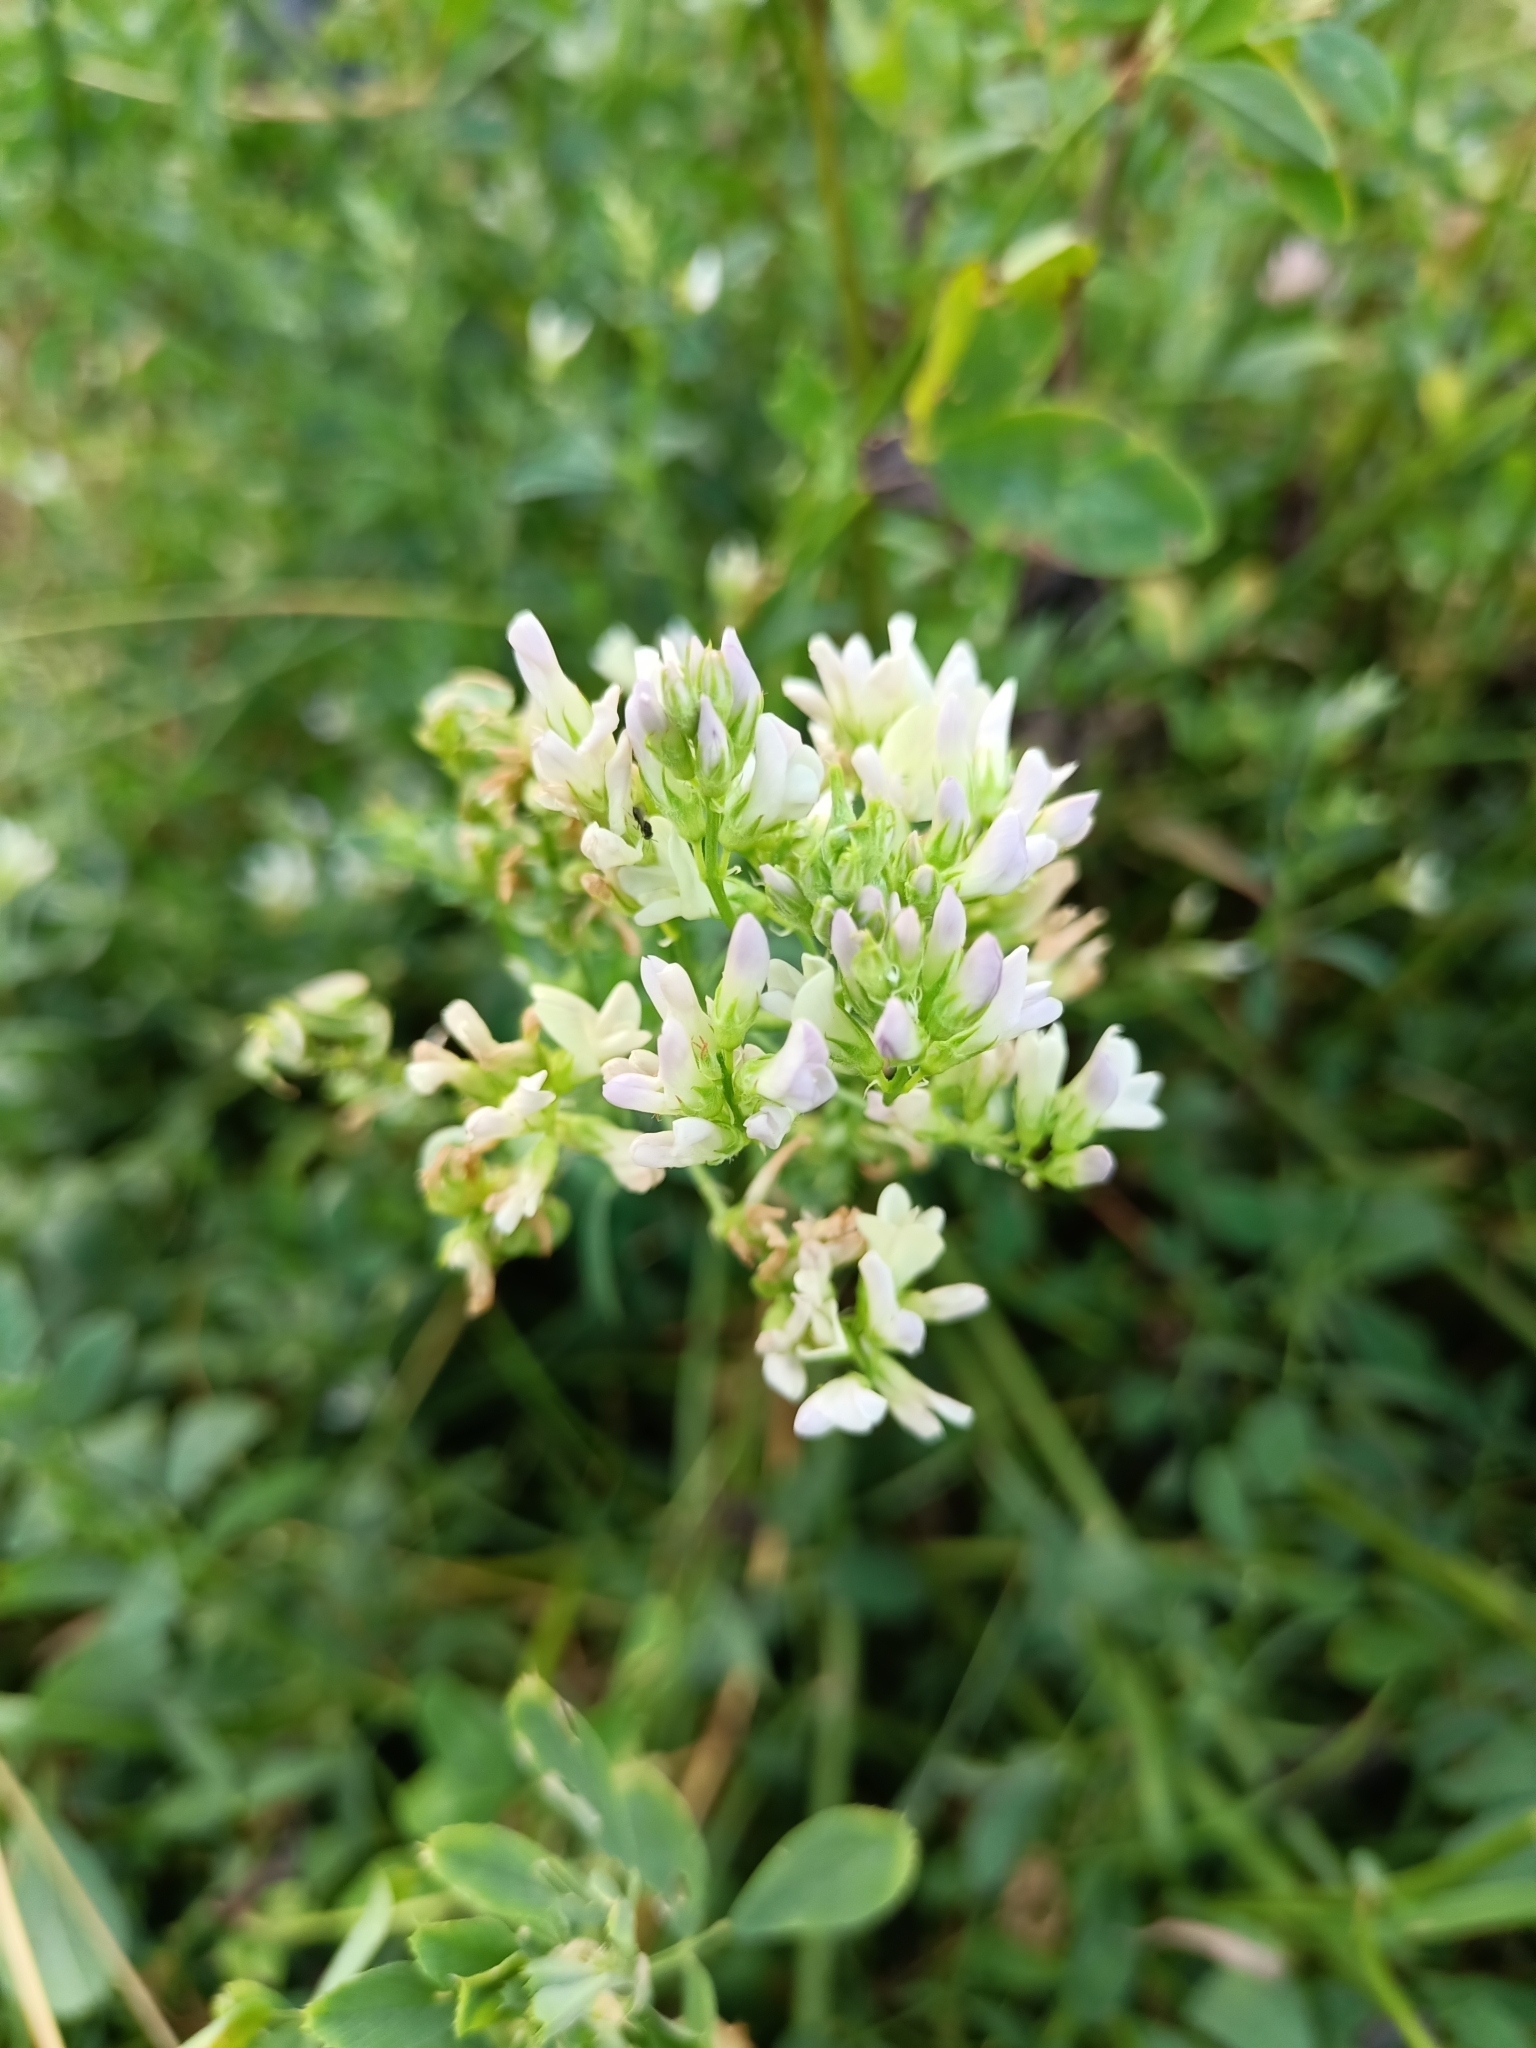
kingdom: Plantae
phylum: Tracheophyta
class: Magnoliopsida
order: Fabales
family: Fabaceae
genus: Medicago
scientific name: Medicago varia
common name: Sand lucerne
